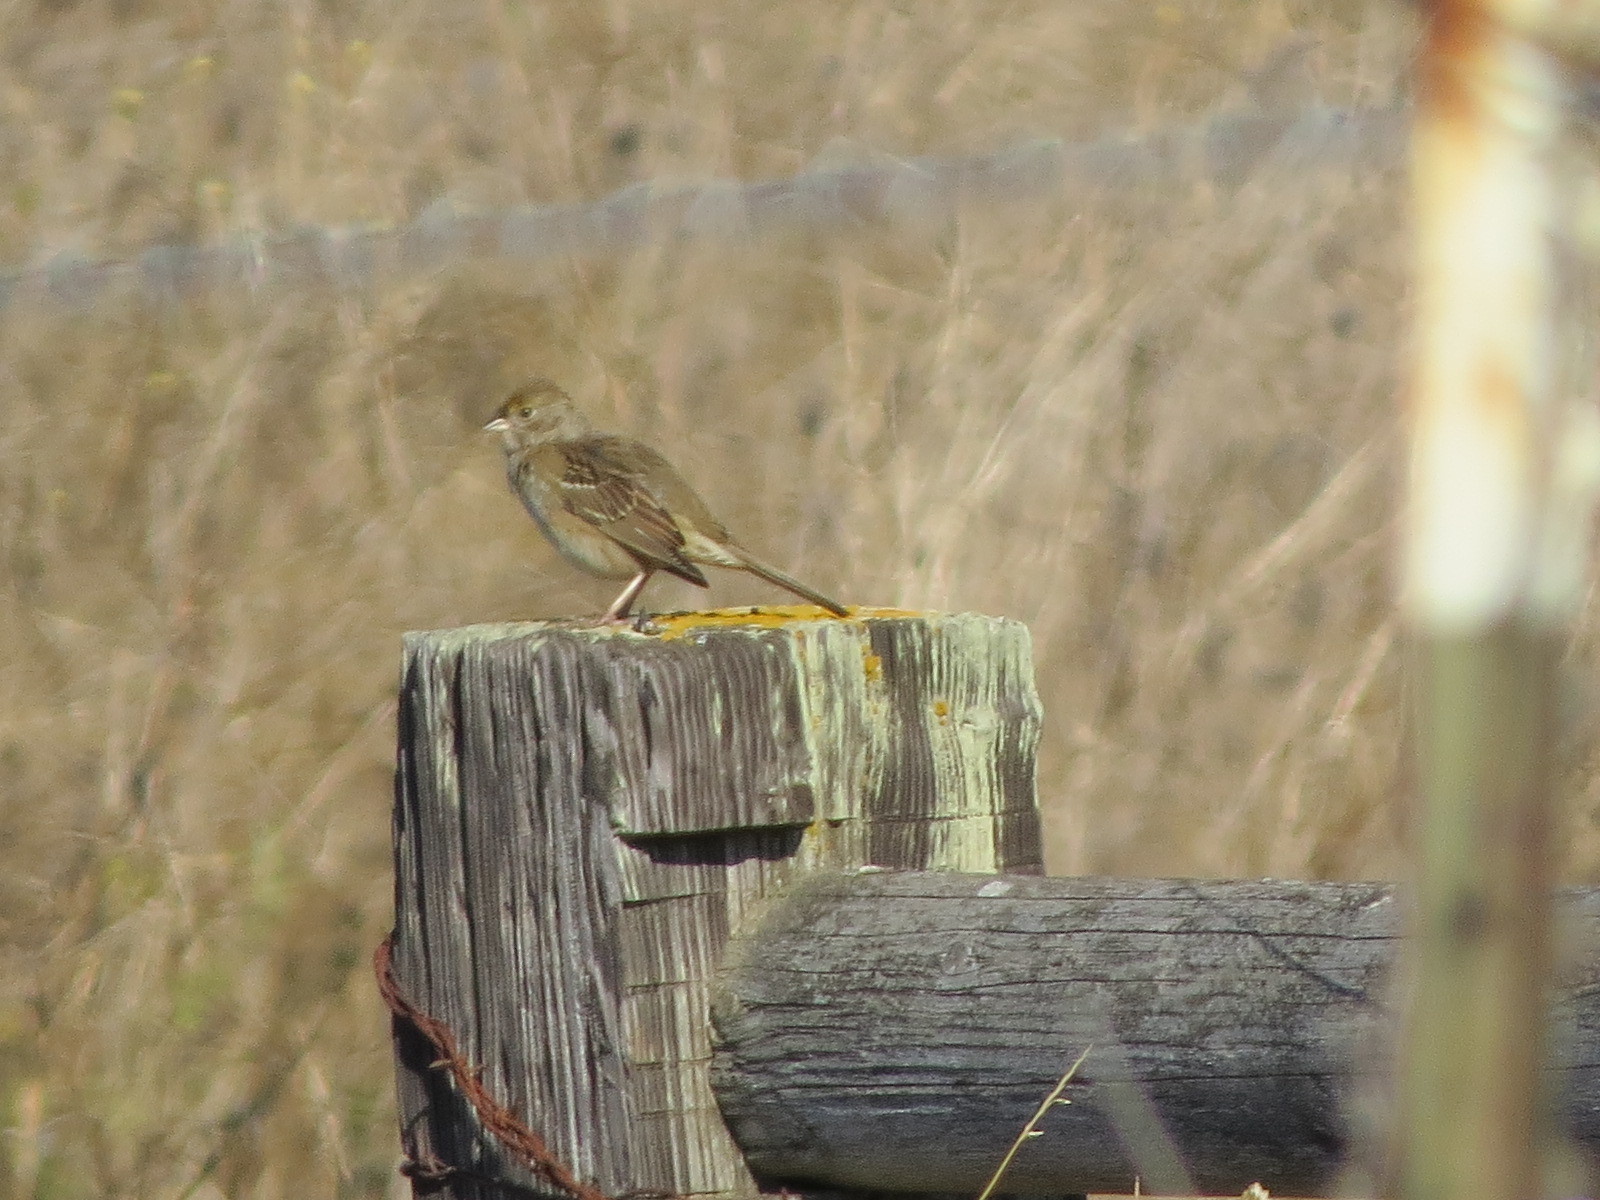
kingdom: Animalia
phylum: Chordata
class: Aves
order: Passeriformes
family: Passerellidae
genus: Zonotrichia
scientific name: Zonotrichia atricapilla
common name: Golden-crowned sparrow
